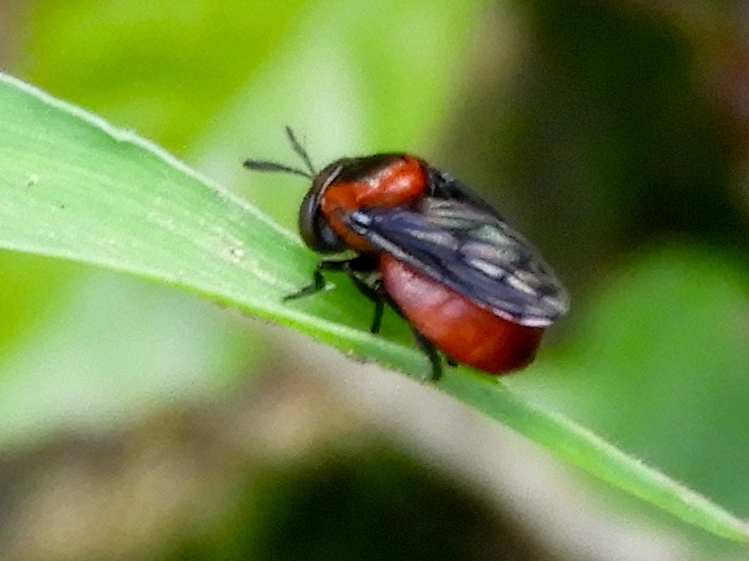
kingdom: Animalia
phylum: Arthropoda
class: Insecta
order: Diptera
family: Syrphidae
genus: Menidon
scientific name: Menidon falcatus
